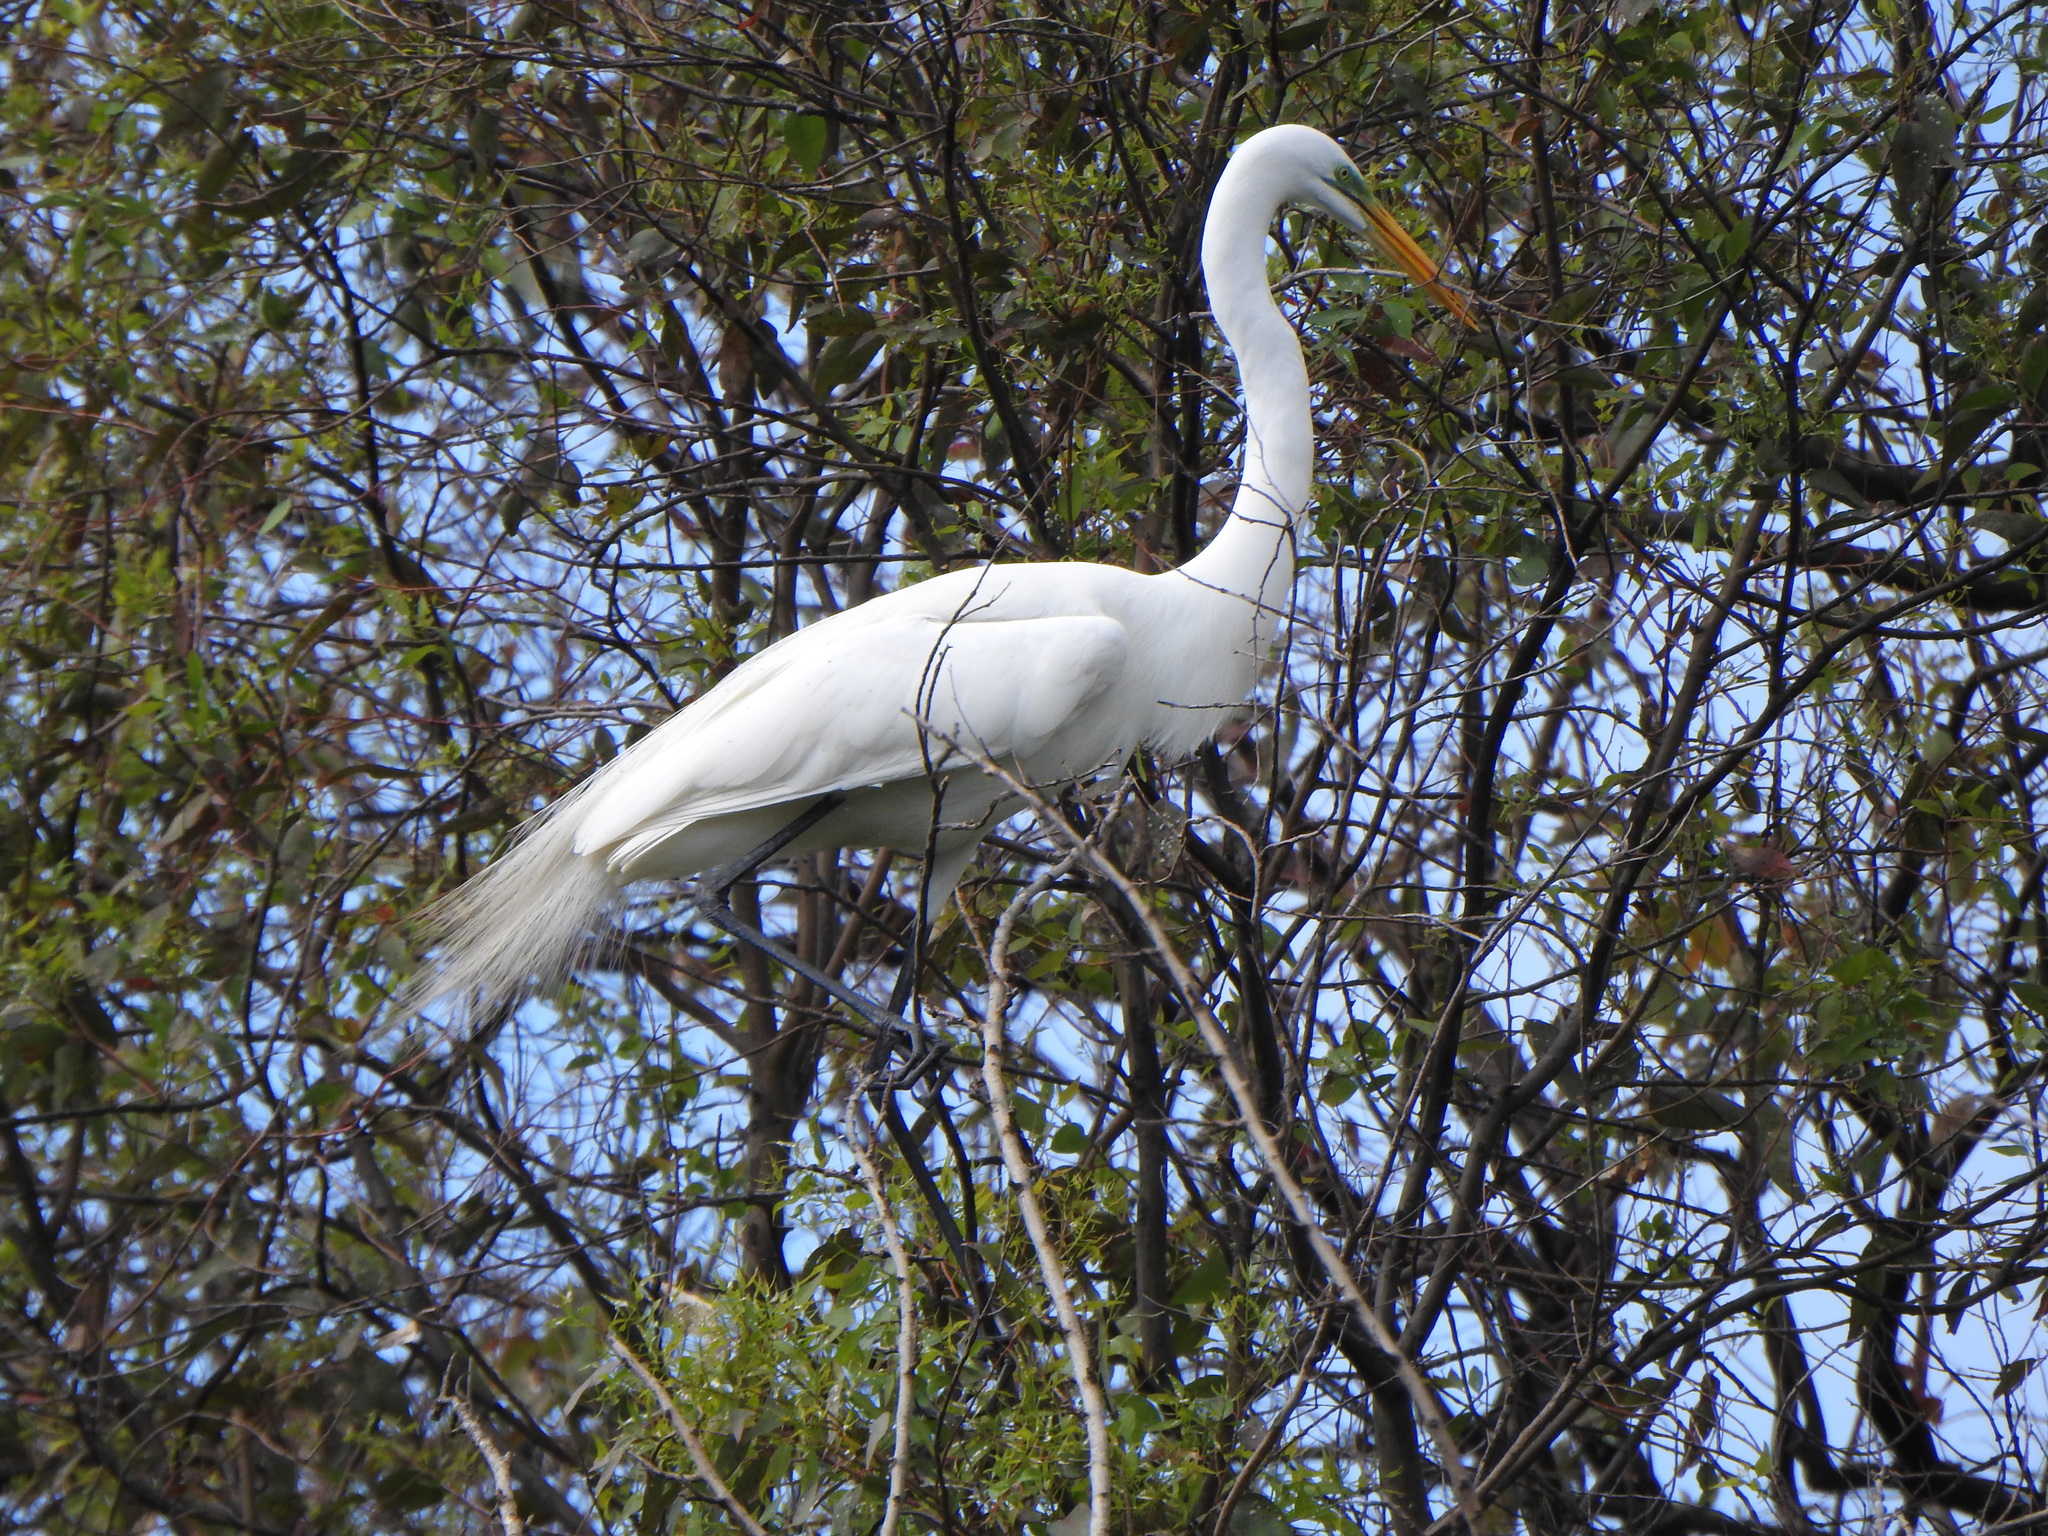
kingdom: Animalia
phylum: Chordata
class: Aves
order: Pelecaniformes
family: Ardeidae
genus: Ardea
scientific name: Ardea alba
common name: Great egret
